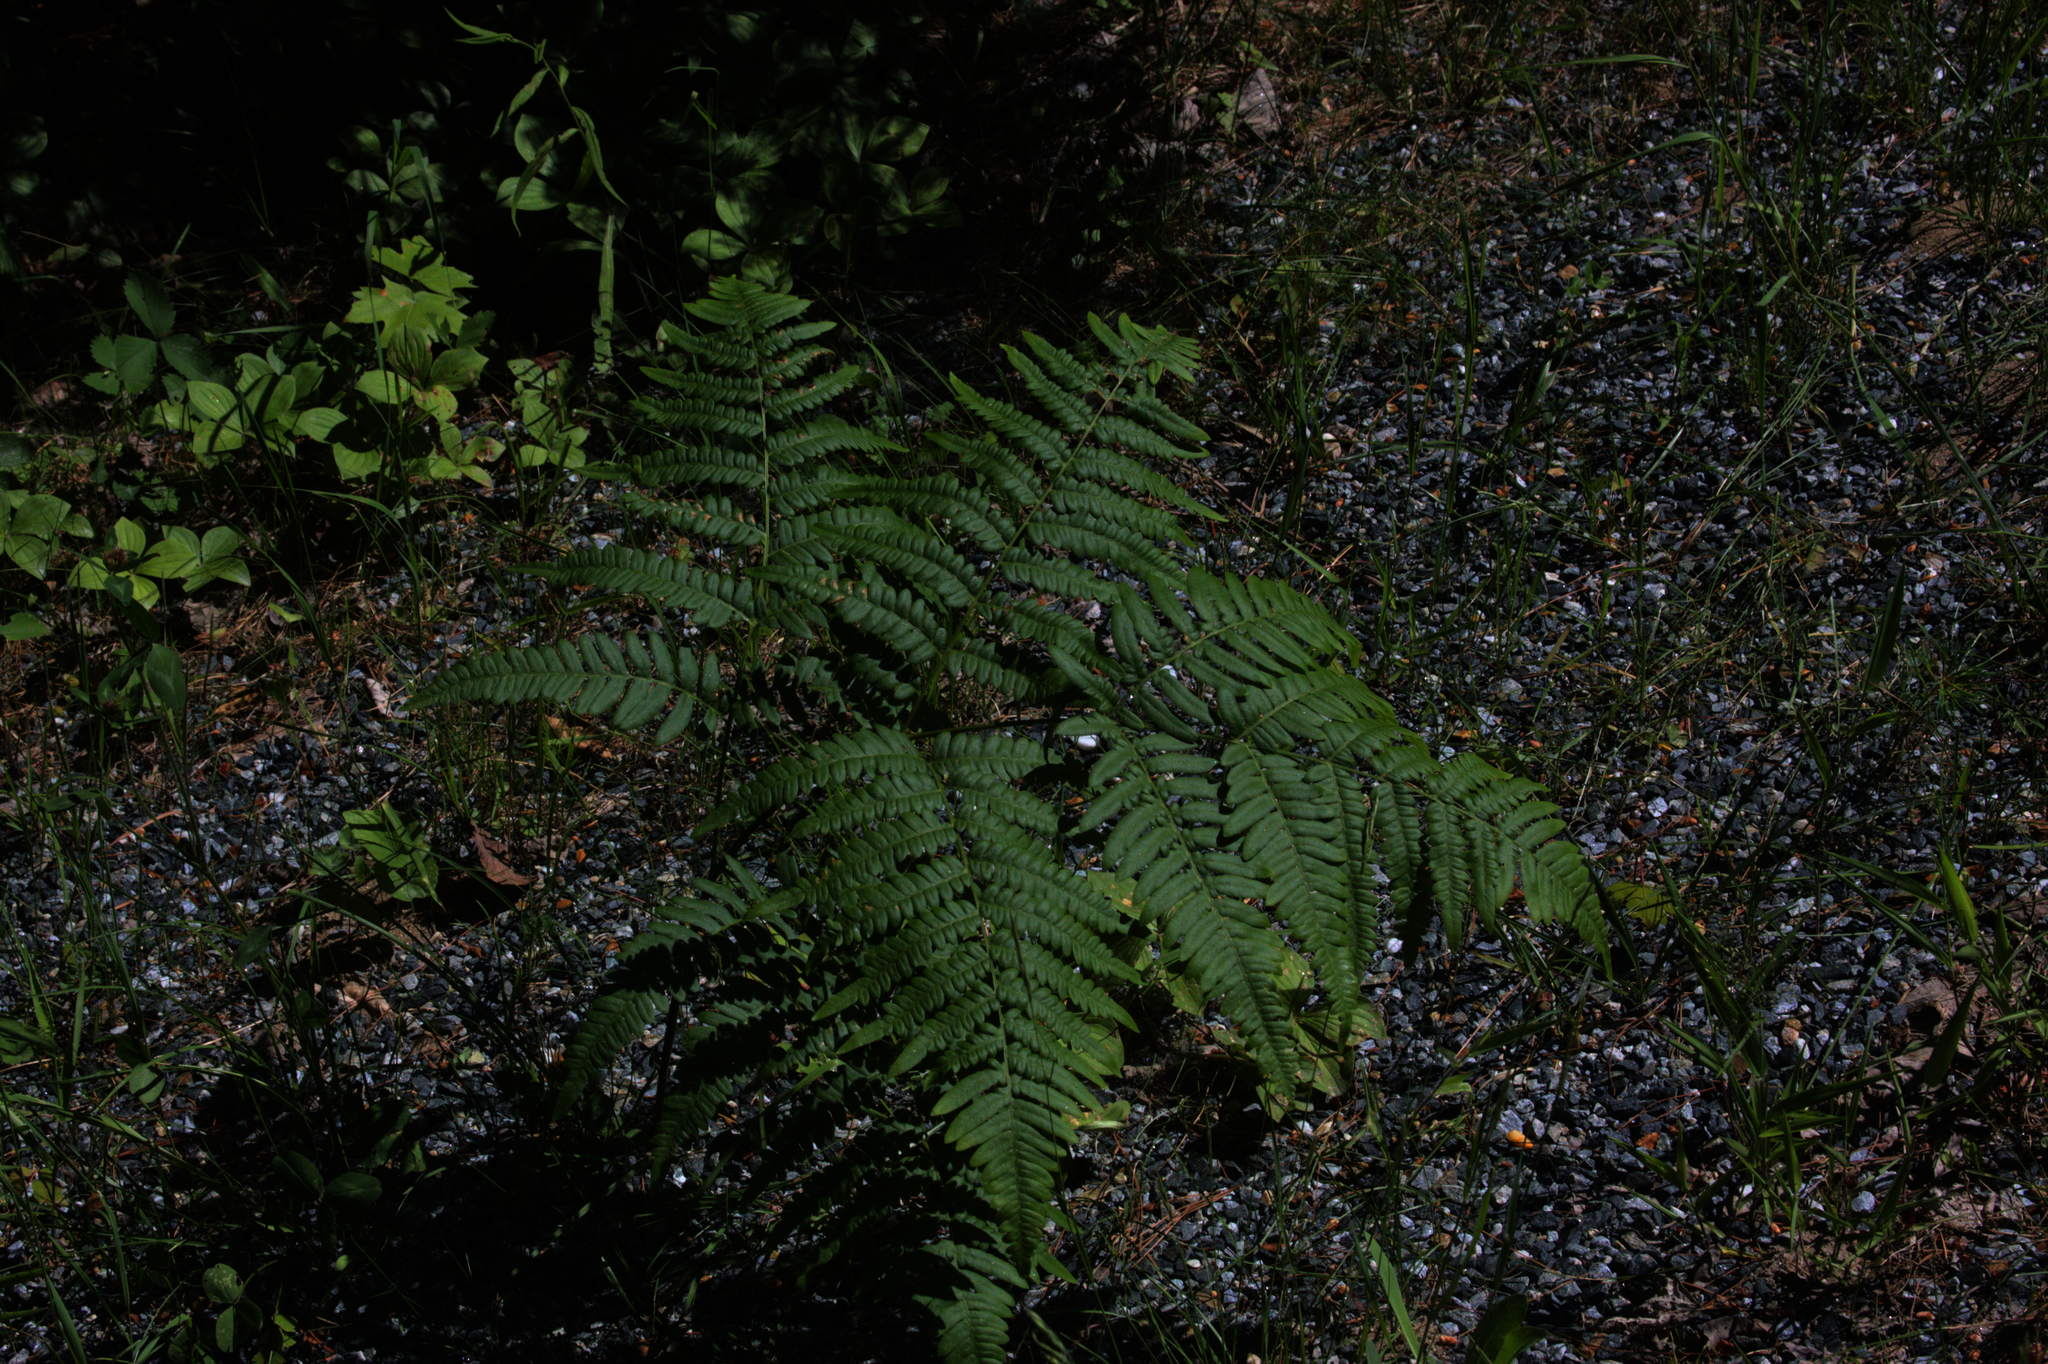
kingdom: Plantae
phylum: Tracheophyta
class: Polypodiopsida
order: Polypodiales
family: Dennstaedtiaceae
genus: Pteridium
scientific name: Pteridium aquilinum
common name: Bracken
